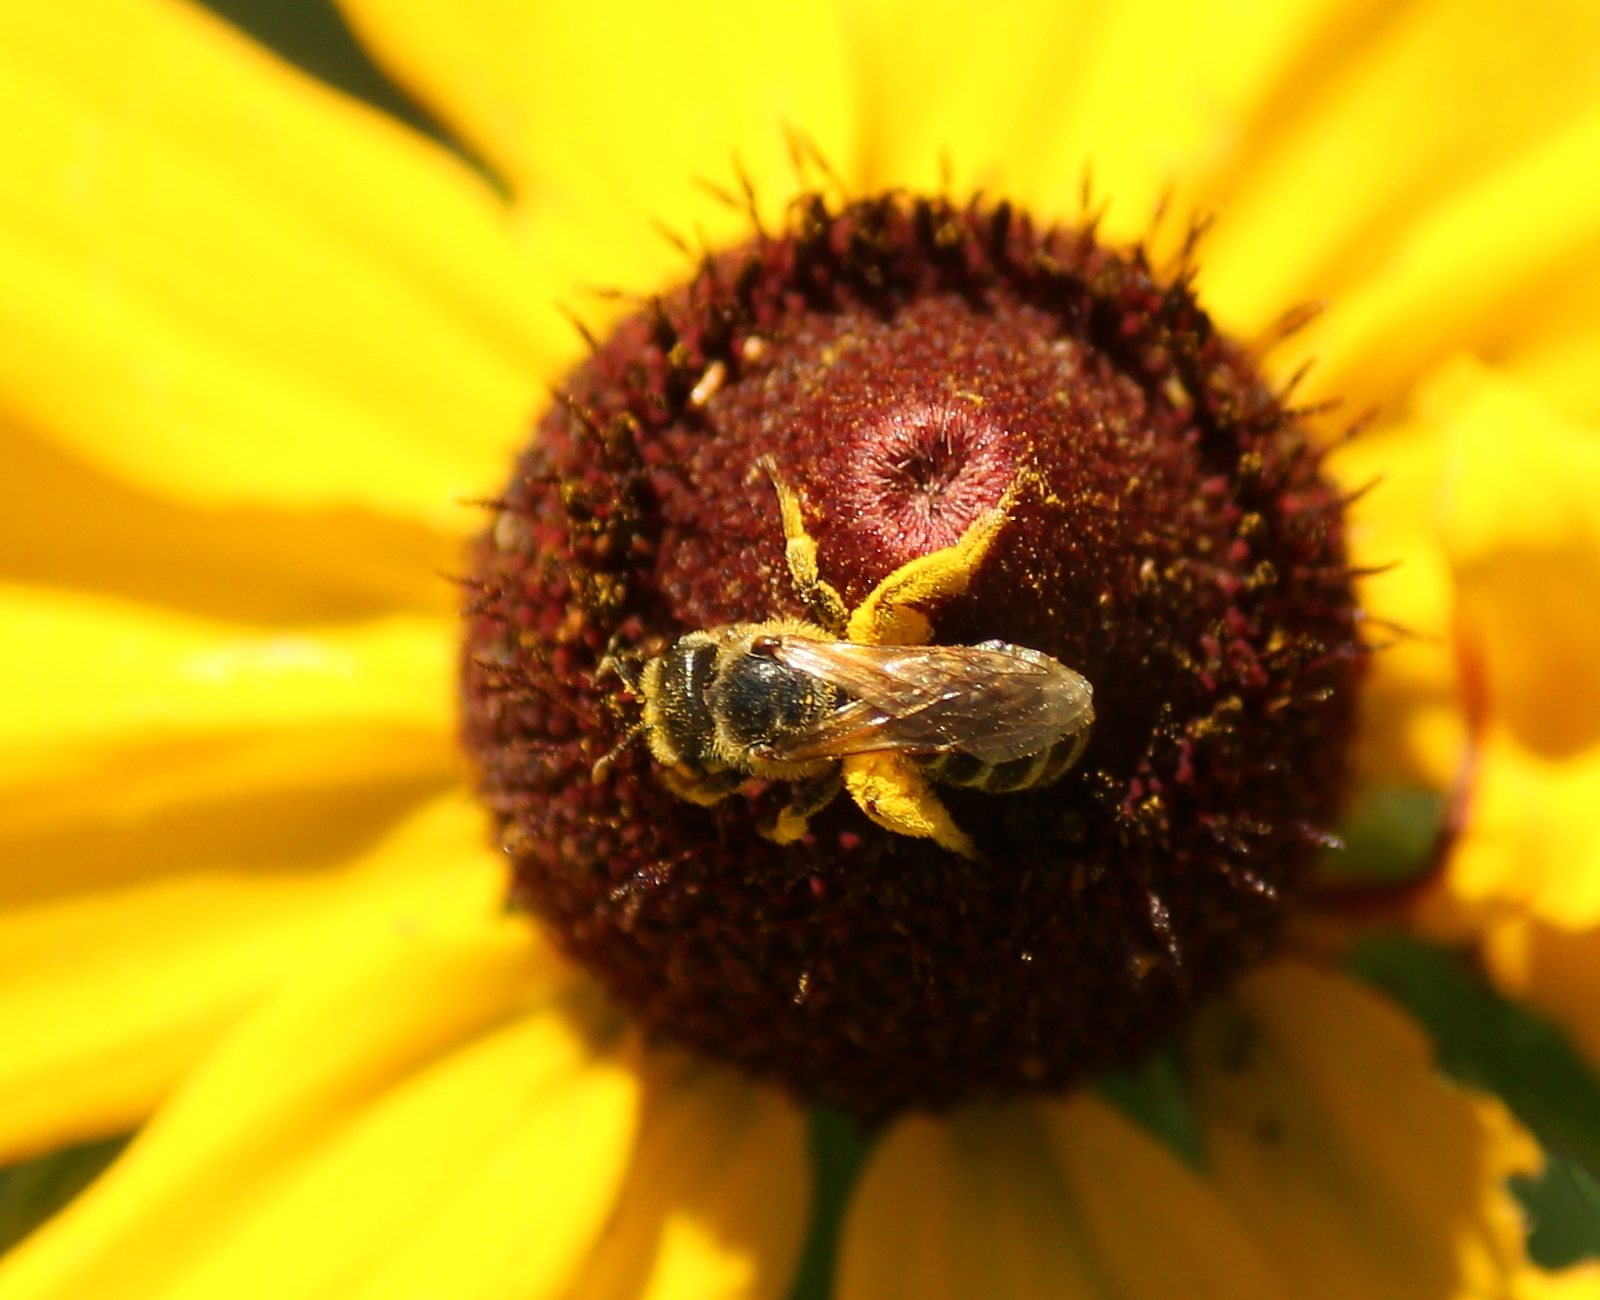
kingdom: Animalia
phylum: Arthropoda
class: Insecta
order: Hymenoptera
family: Halictidae
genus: Halictus
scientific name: Halictus ligatus
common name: Ligated furrow bee
